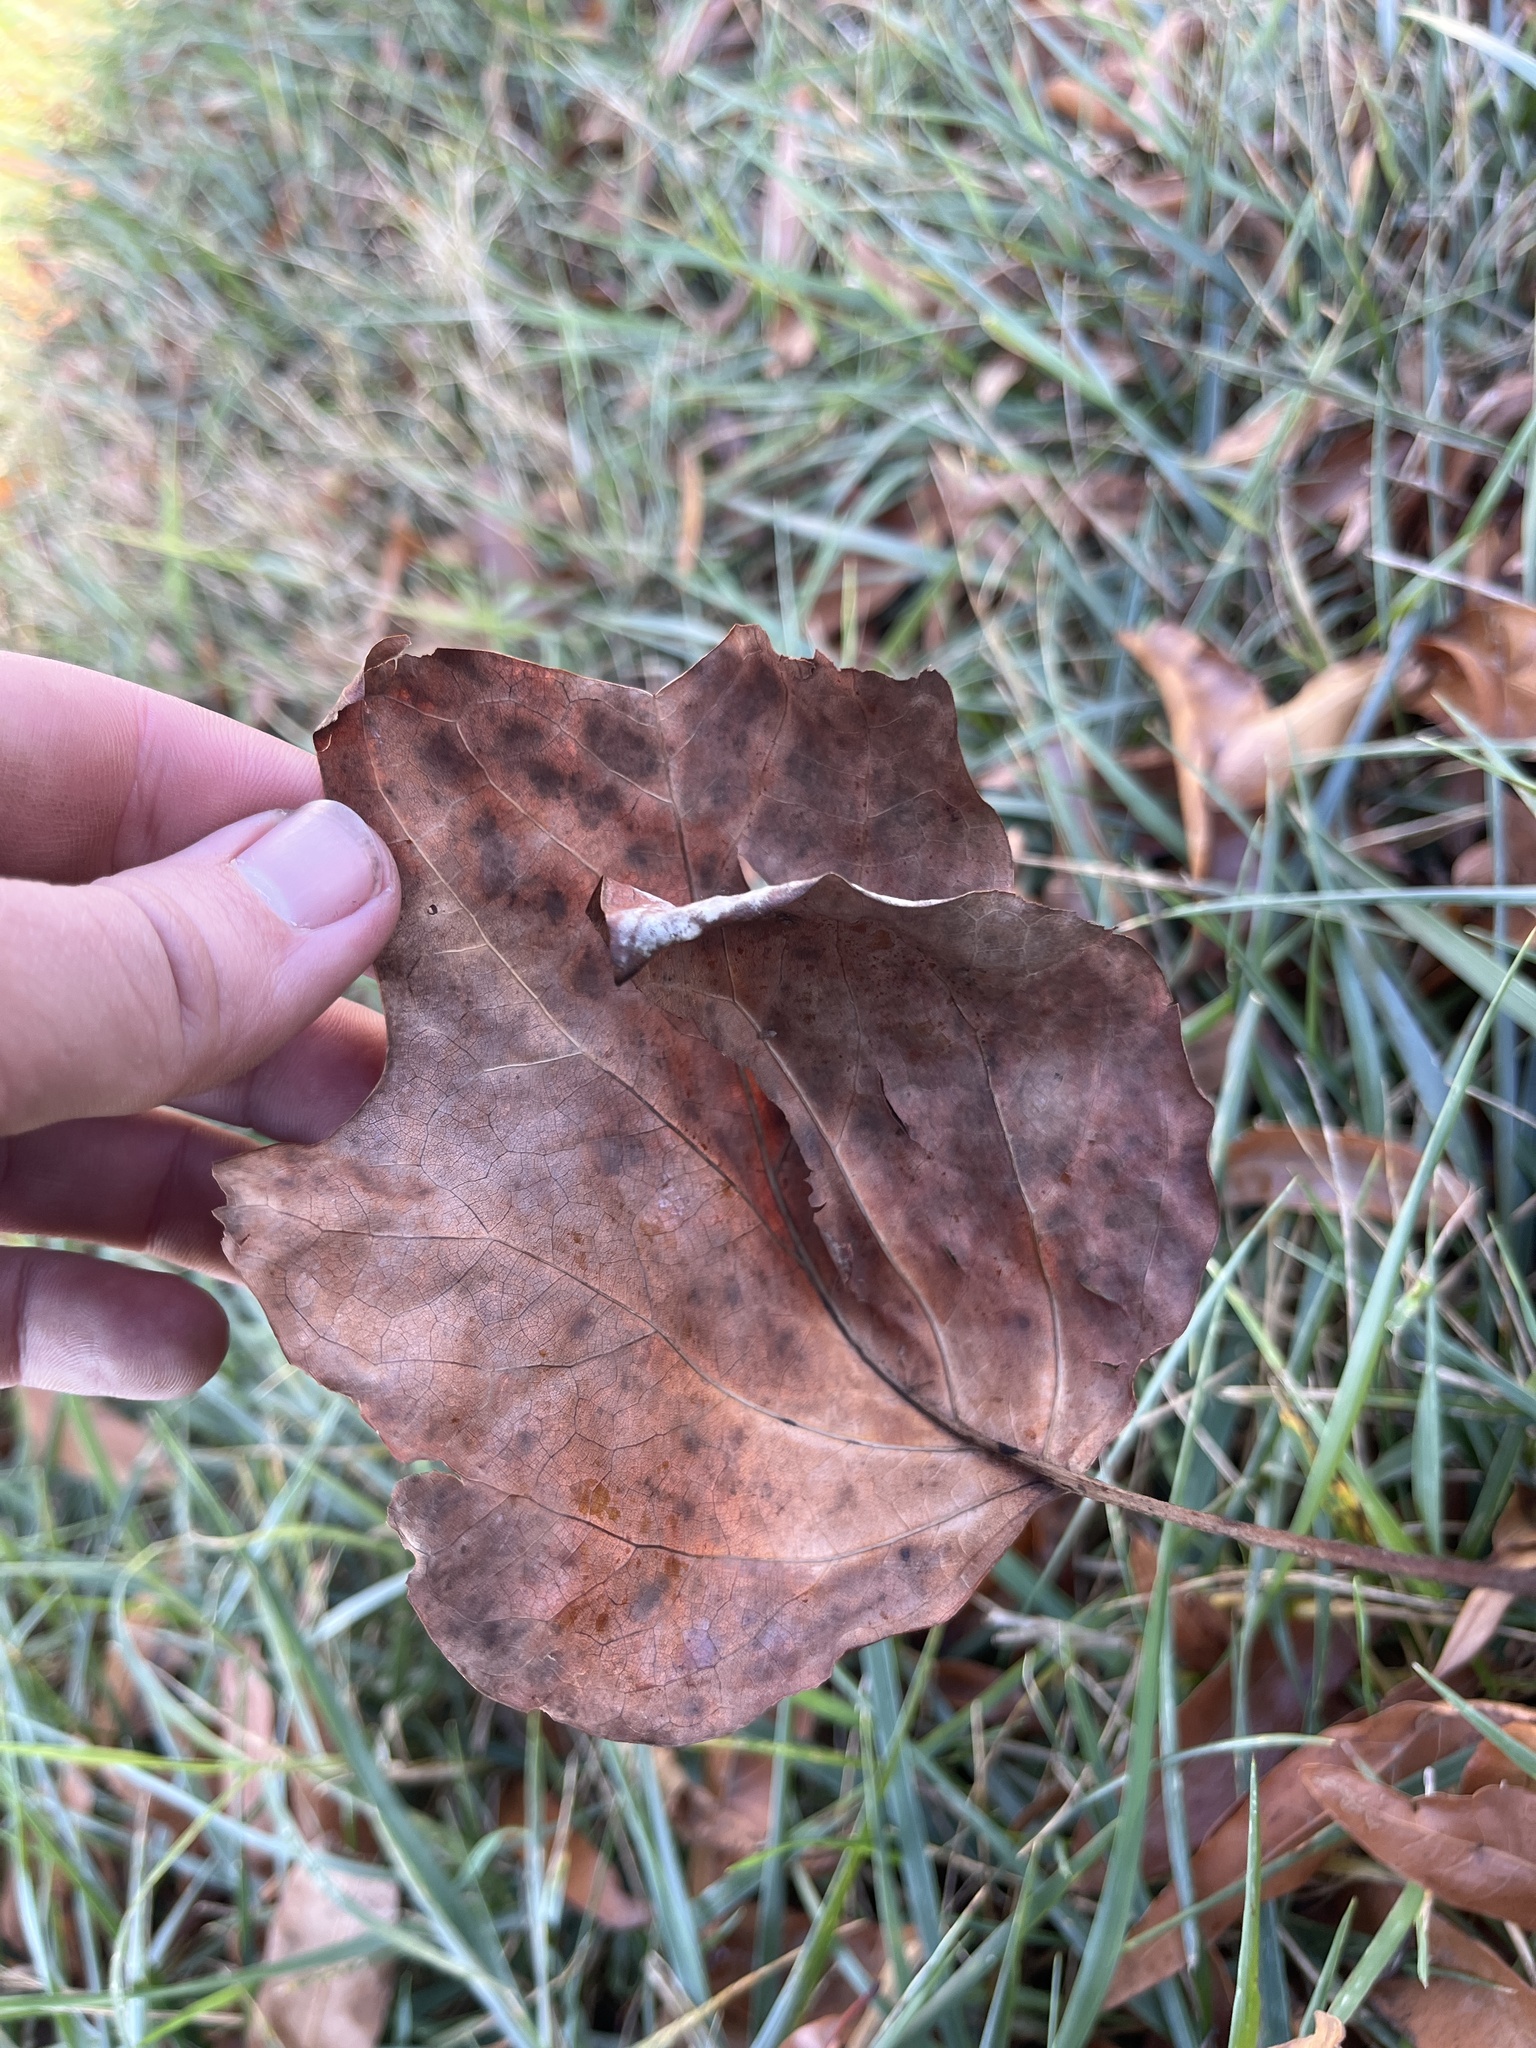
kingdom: Fungi
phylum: Ascomycota
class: Leotiomycetes
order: Helotiales
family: Erysiphaceae
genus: Erysiphe
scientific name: Erysiphe liriodendri
